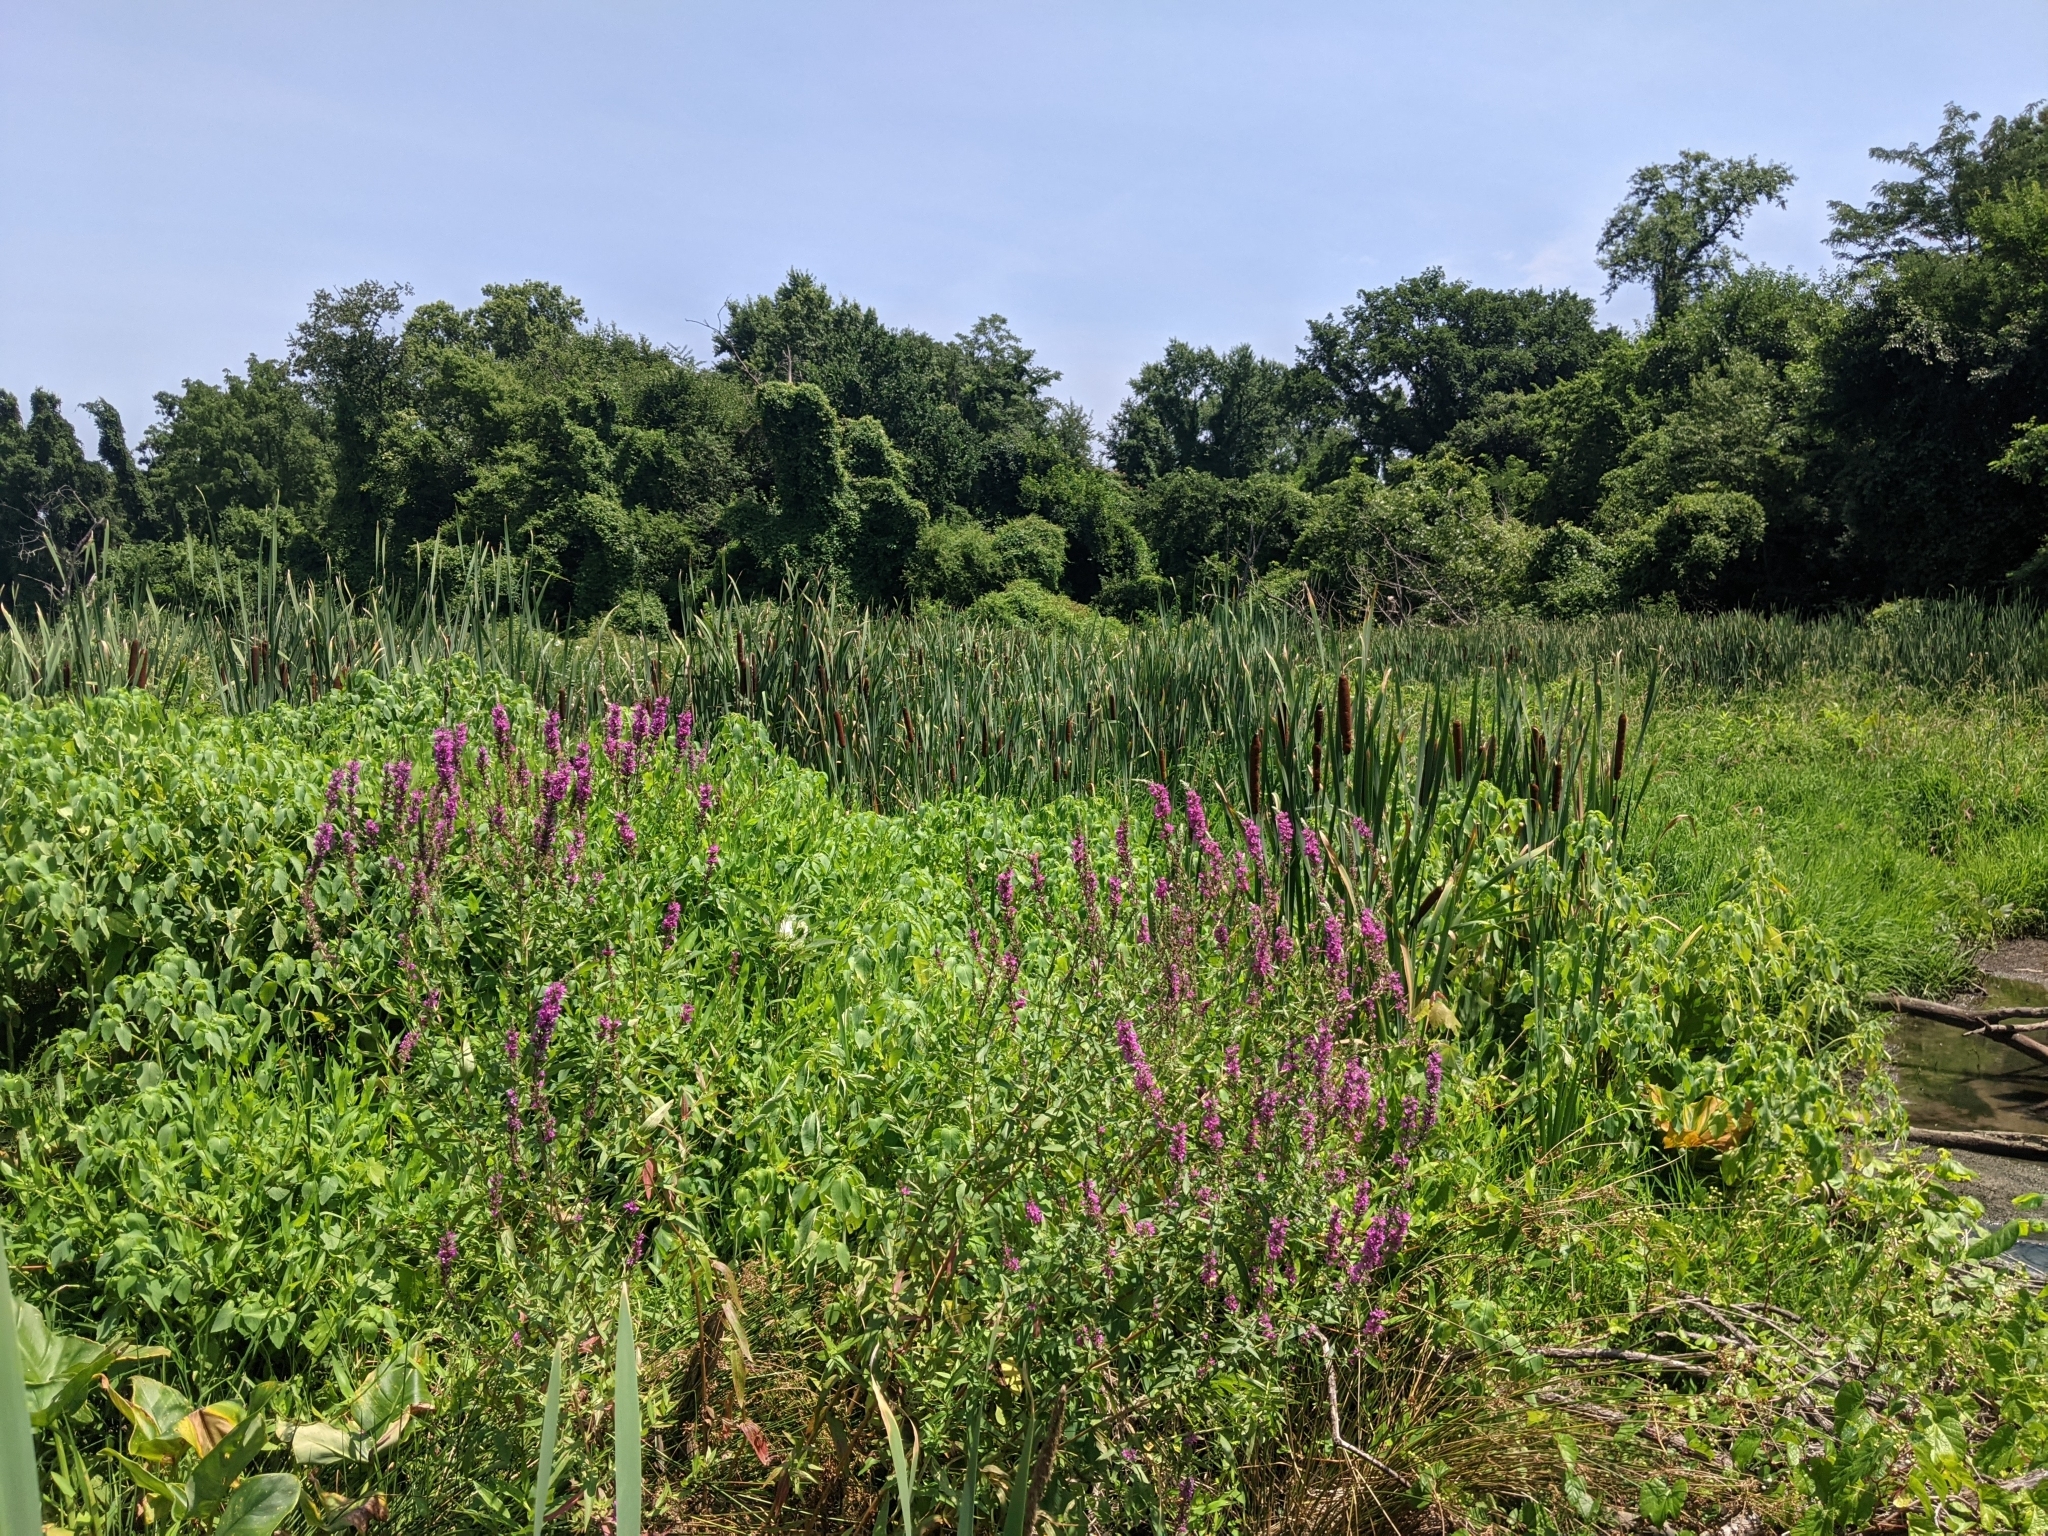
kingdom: Plantae
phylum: Tracheophyta
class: Magnoliopsida
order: Myrtales
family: Lythraceae
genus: Lythrum
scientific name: Lythrum salicaria
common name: Purple loosestrife
